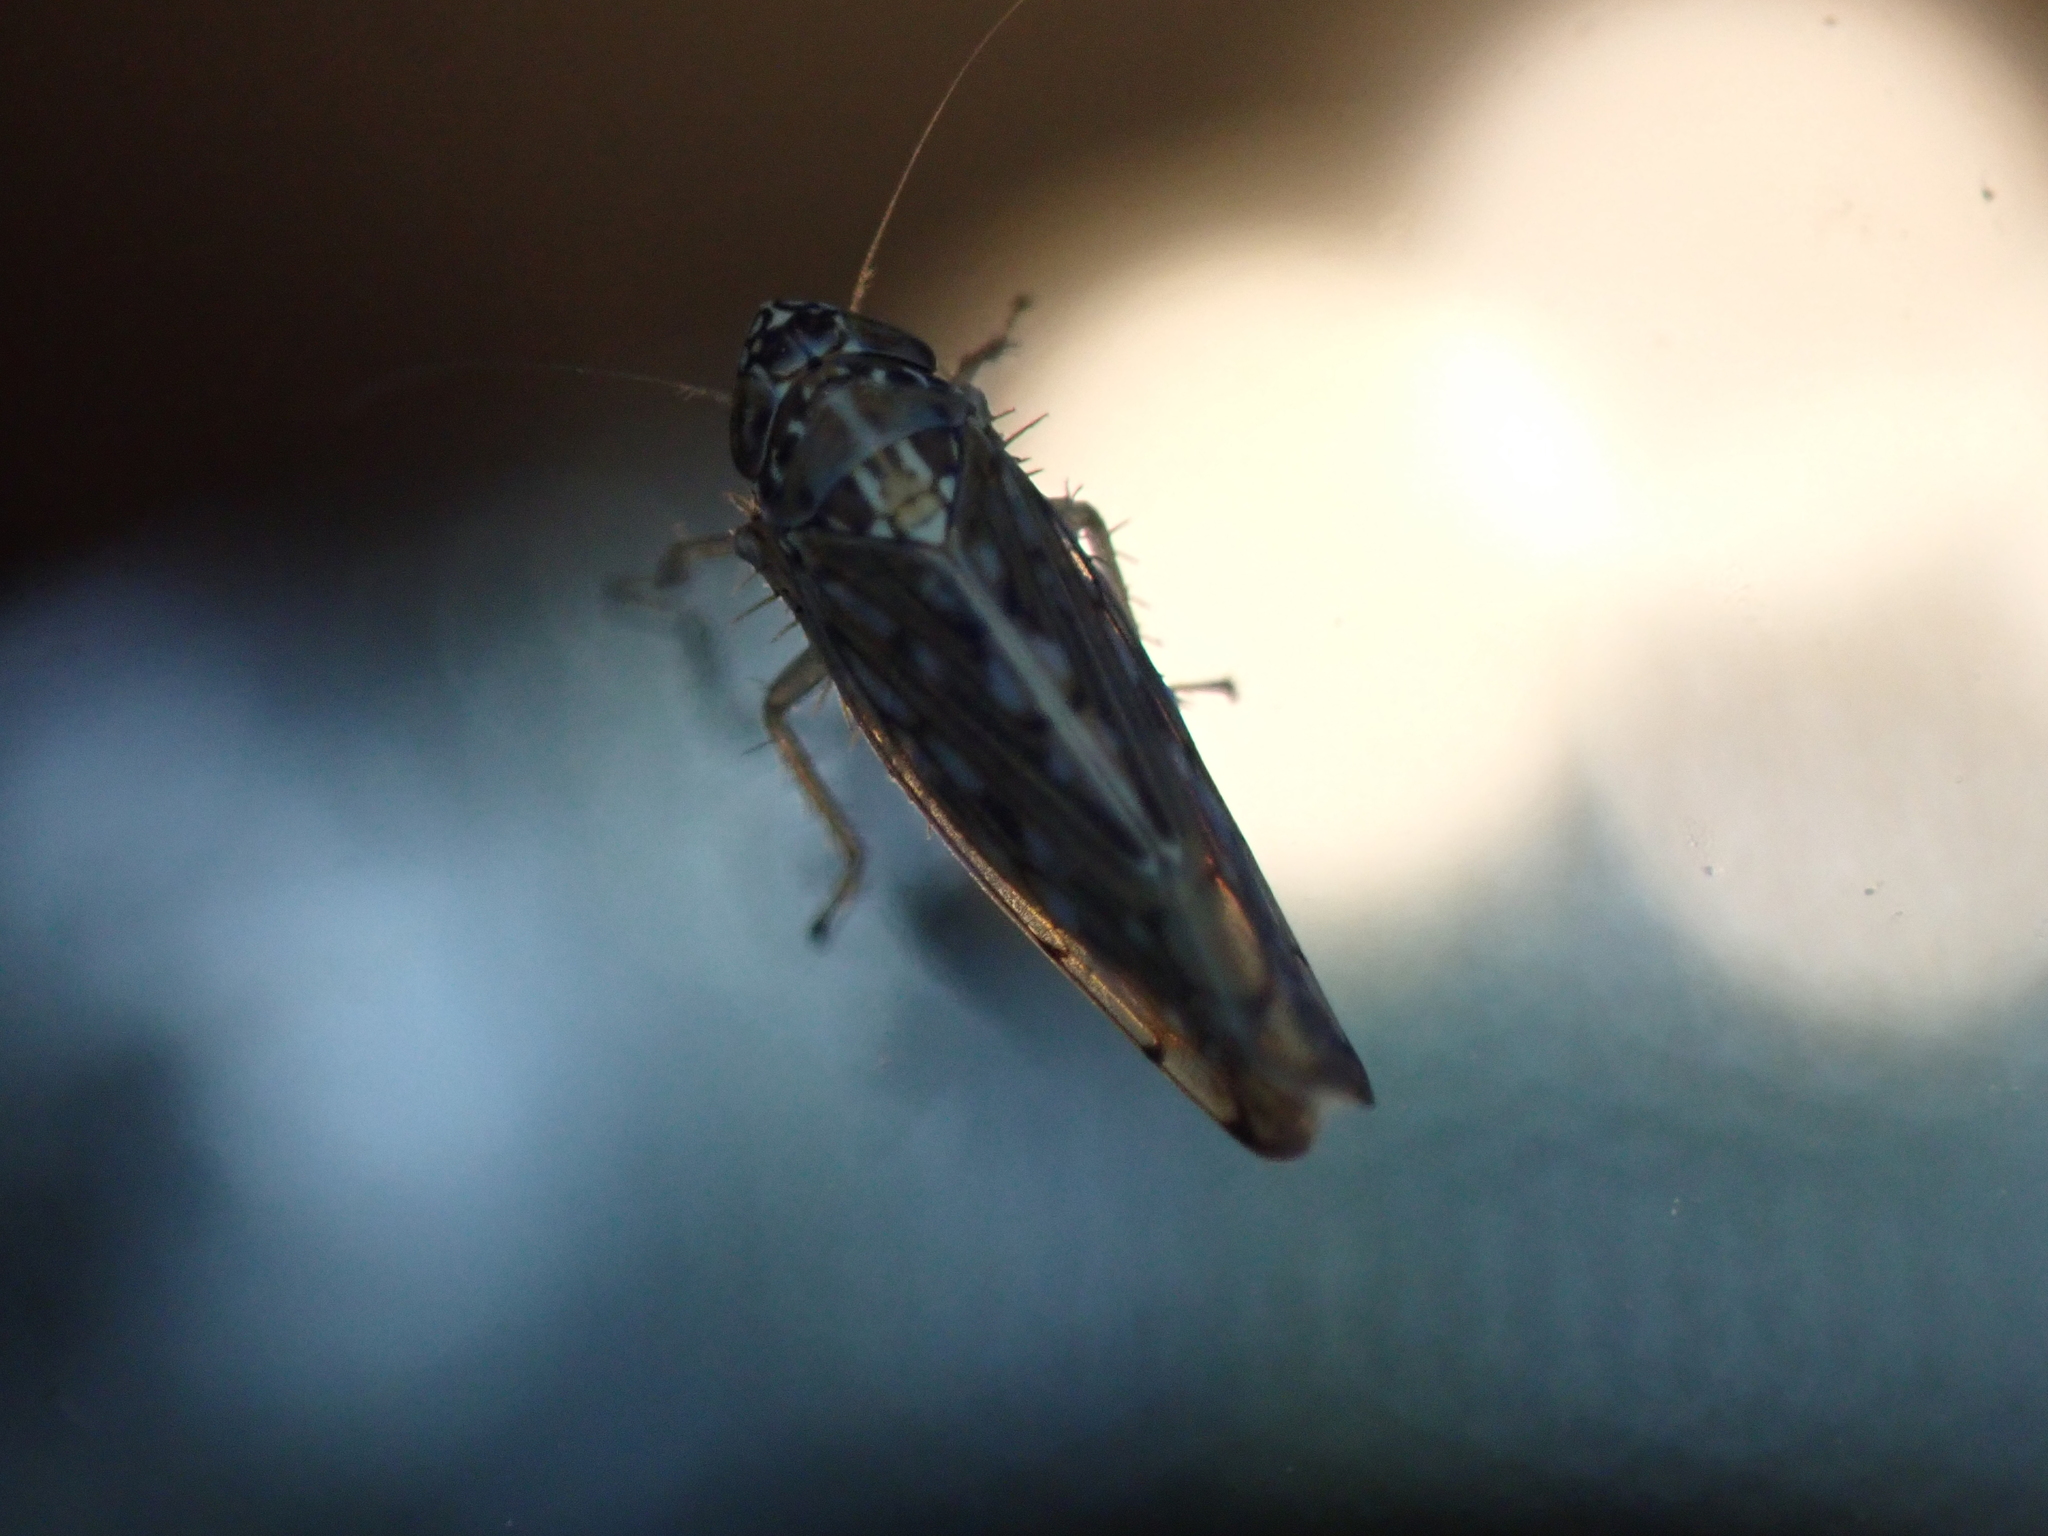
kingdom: Animalia
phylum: Arthropoda
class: Insecta
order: Hemiptera
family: Cicadellidae
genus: Osbornellus
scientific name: Osbornellus clarus
